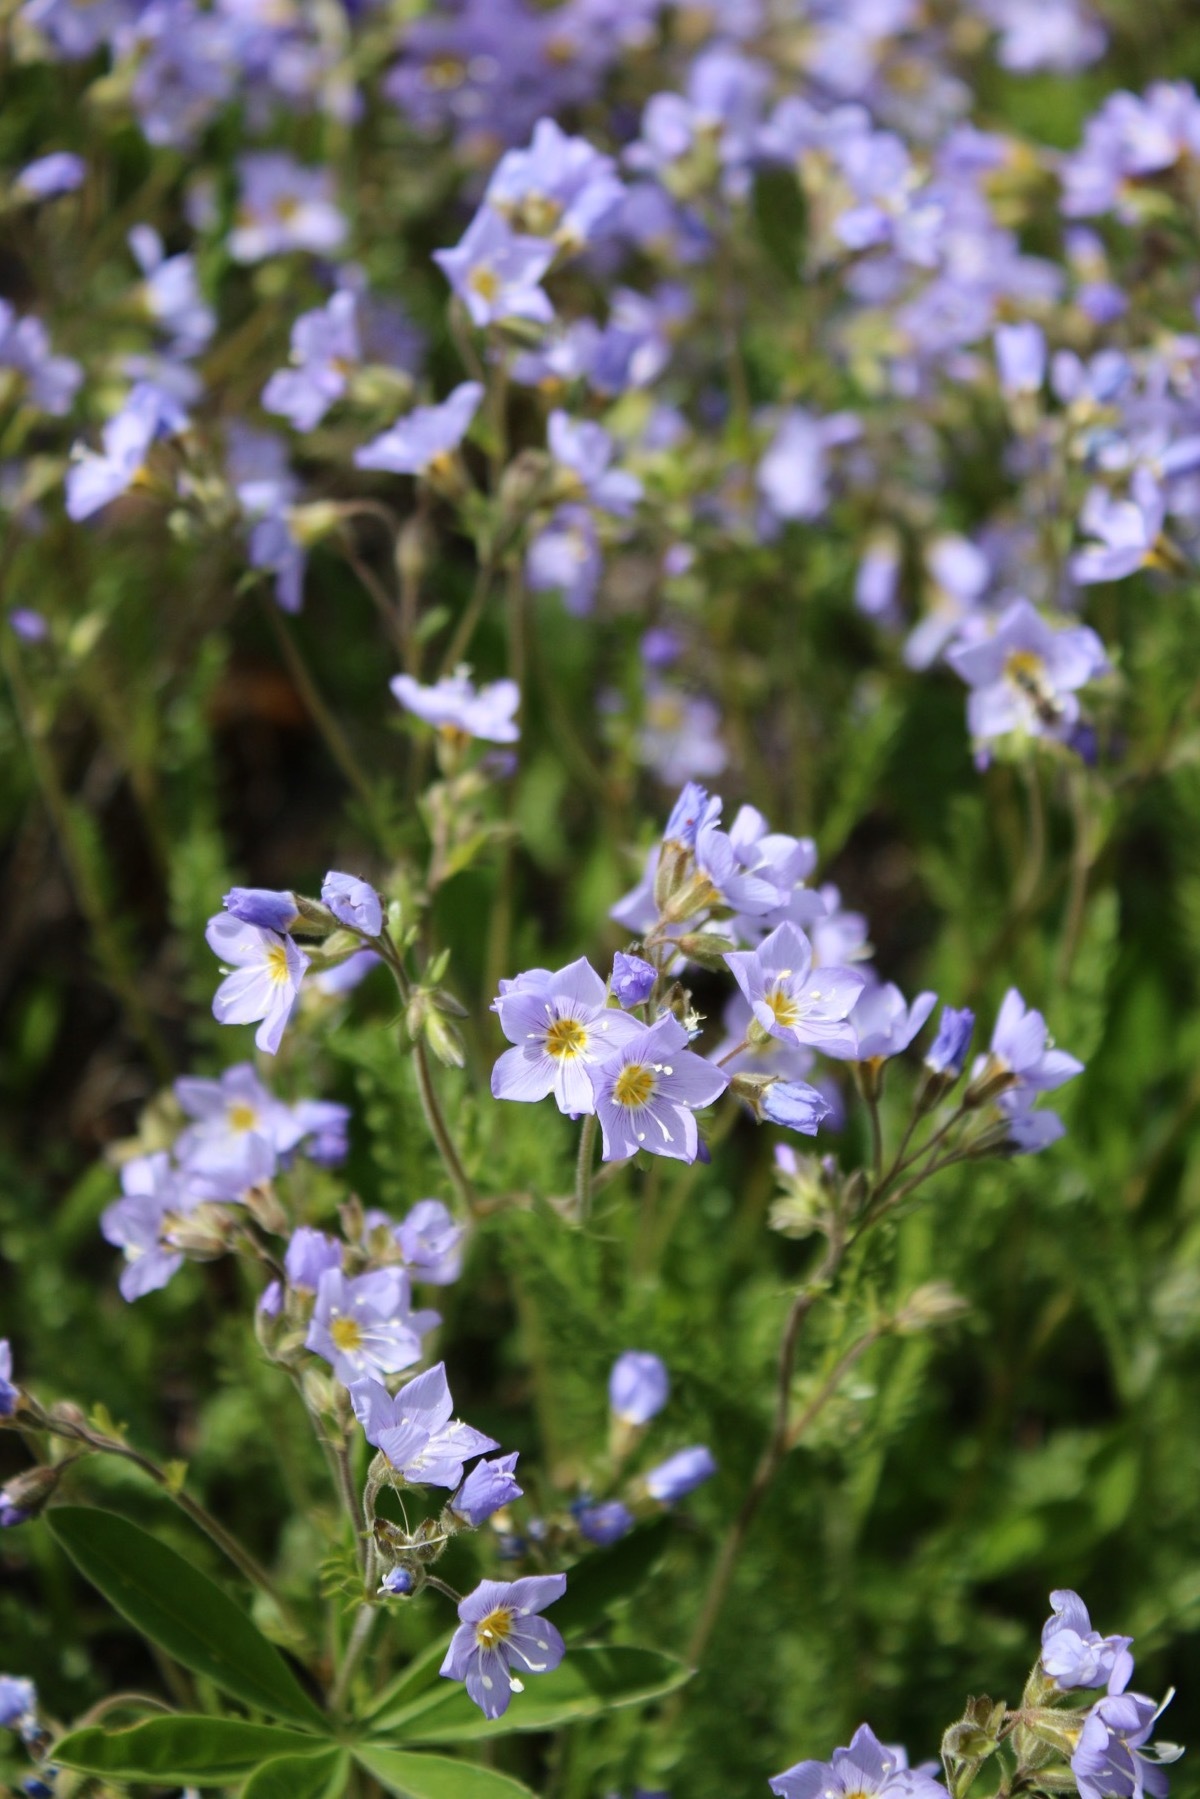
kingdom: Plantae
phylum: Tracheophyta
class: Magnoliopsida
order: Ericales
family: Polemoniaceae
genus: Polemonium
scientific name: Polemonium pulcherrimum
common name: Short jacob's-ladder
